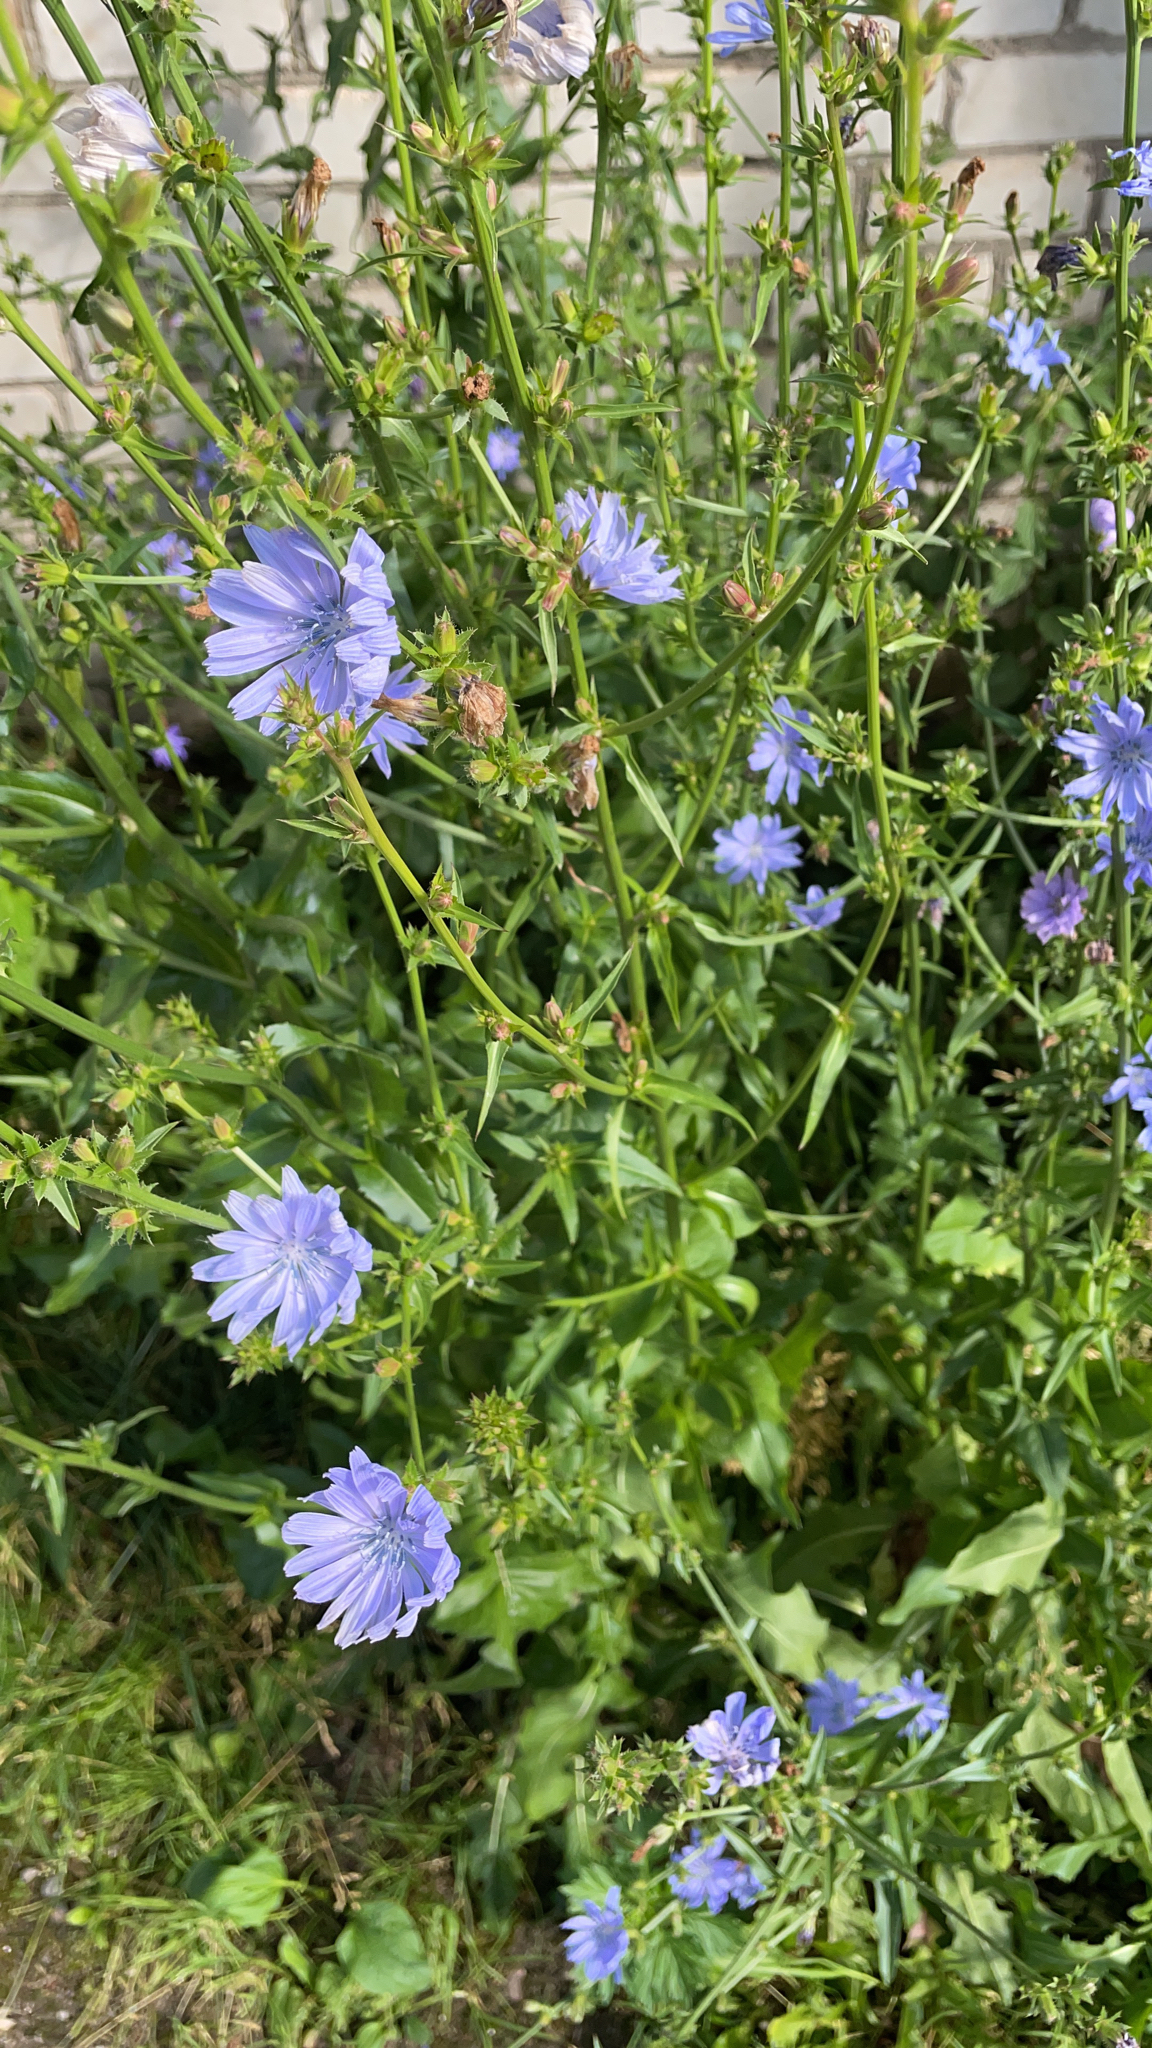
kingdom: Plantae
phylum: Tracheophyta
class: Magnoliopsida
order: Asterales
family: Asteraceae
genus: Cichorium
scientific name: Cichorium intybus
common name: Chicory
